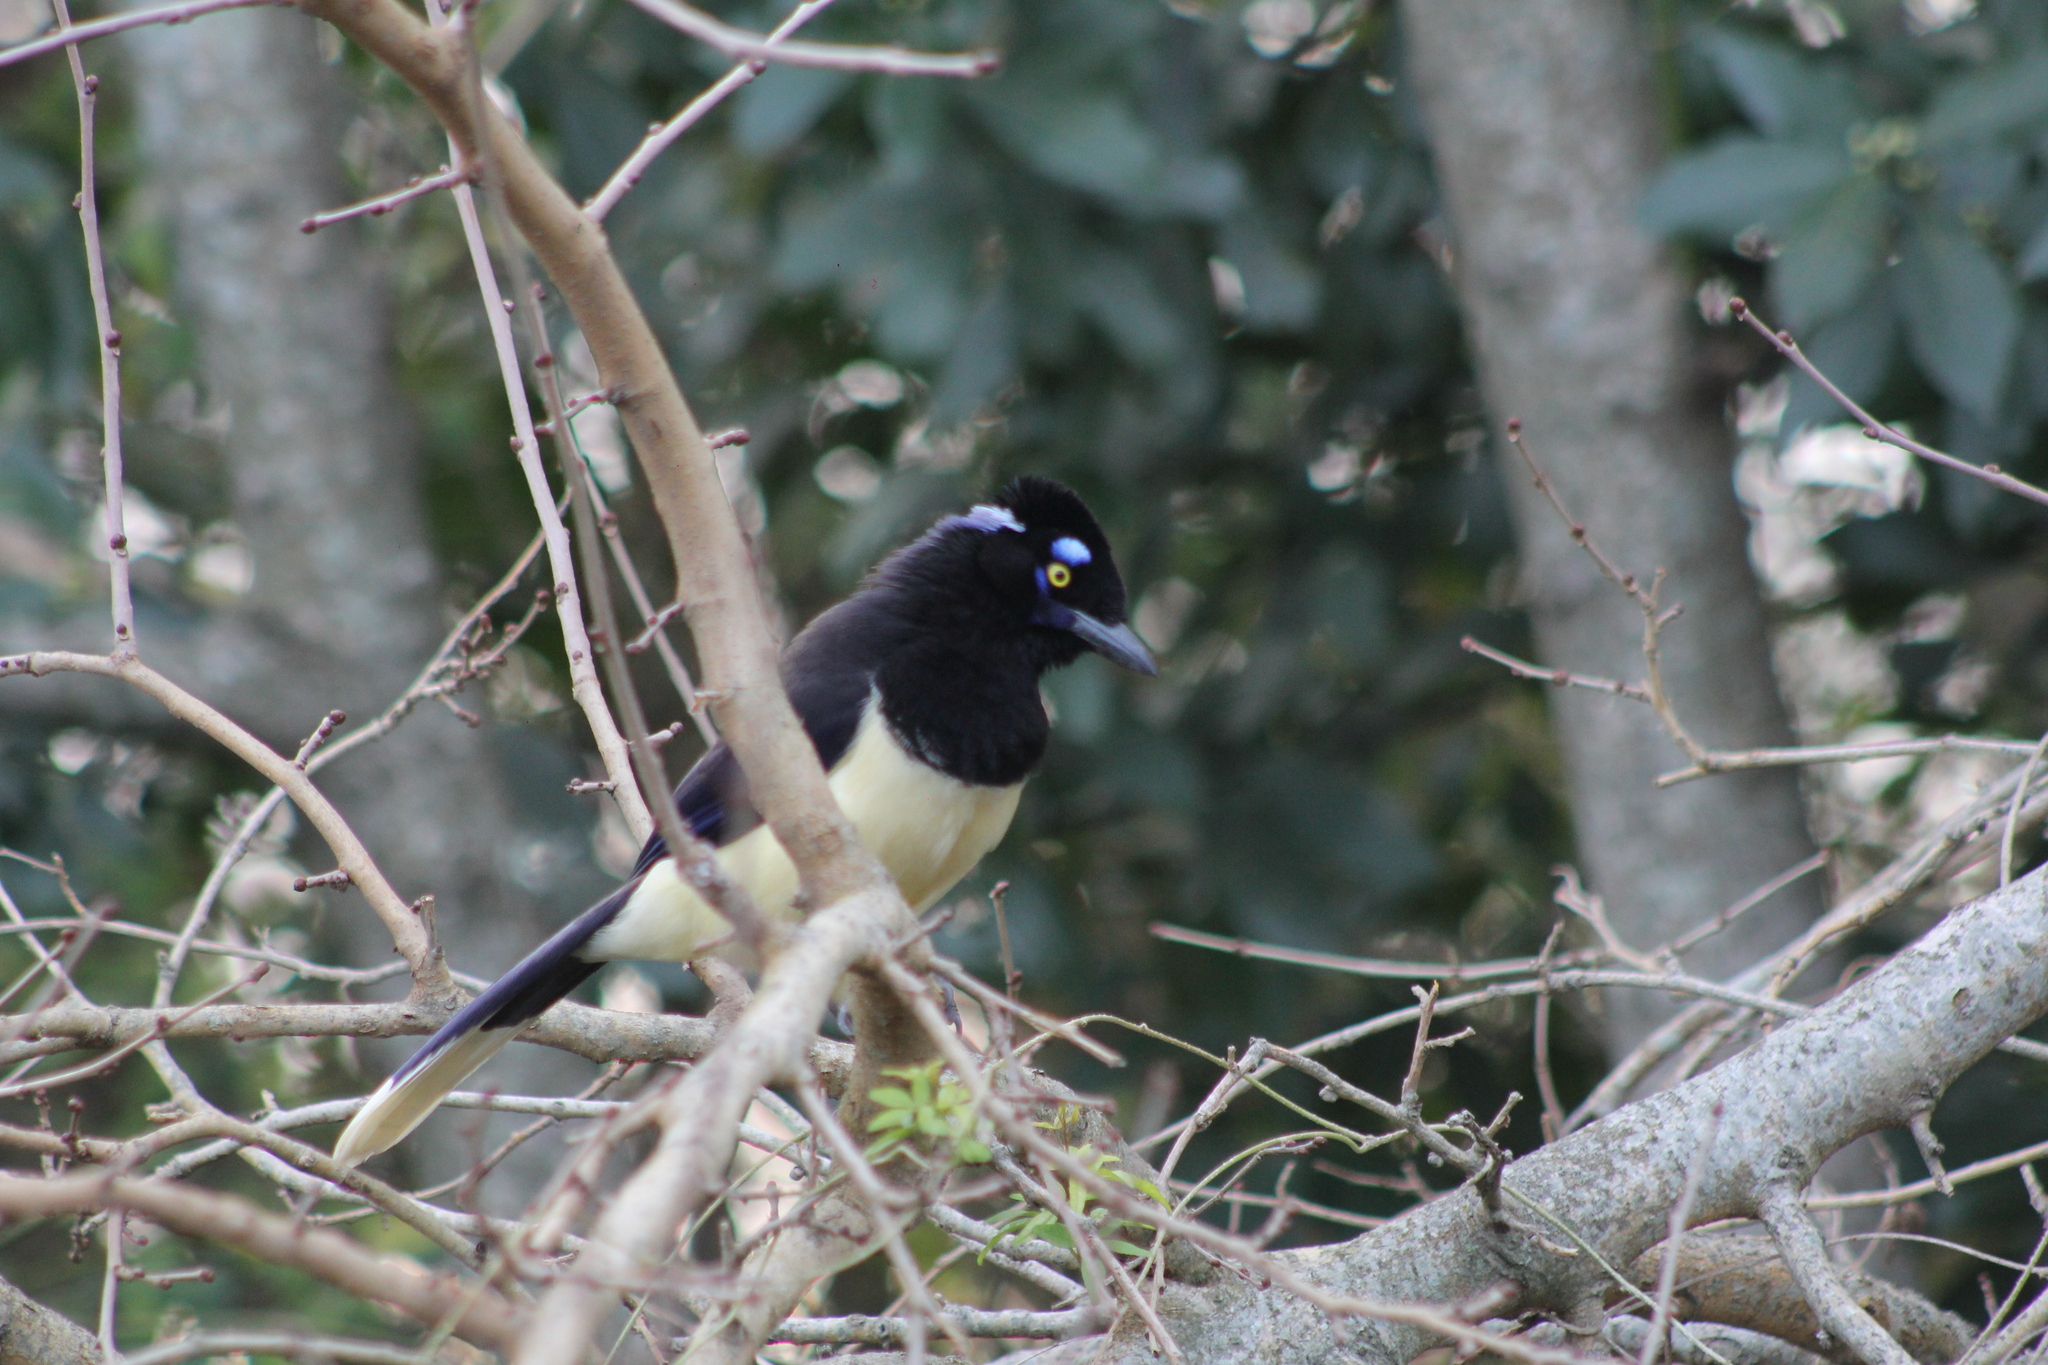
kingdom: Animalia
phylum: Chordata
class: Aves
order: Passeriformes
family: Corvidae
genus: Cyanocorax
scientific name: Cyanocorax chrysops
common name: Plush-crested jay
